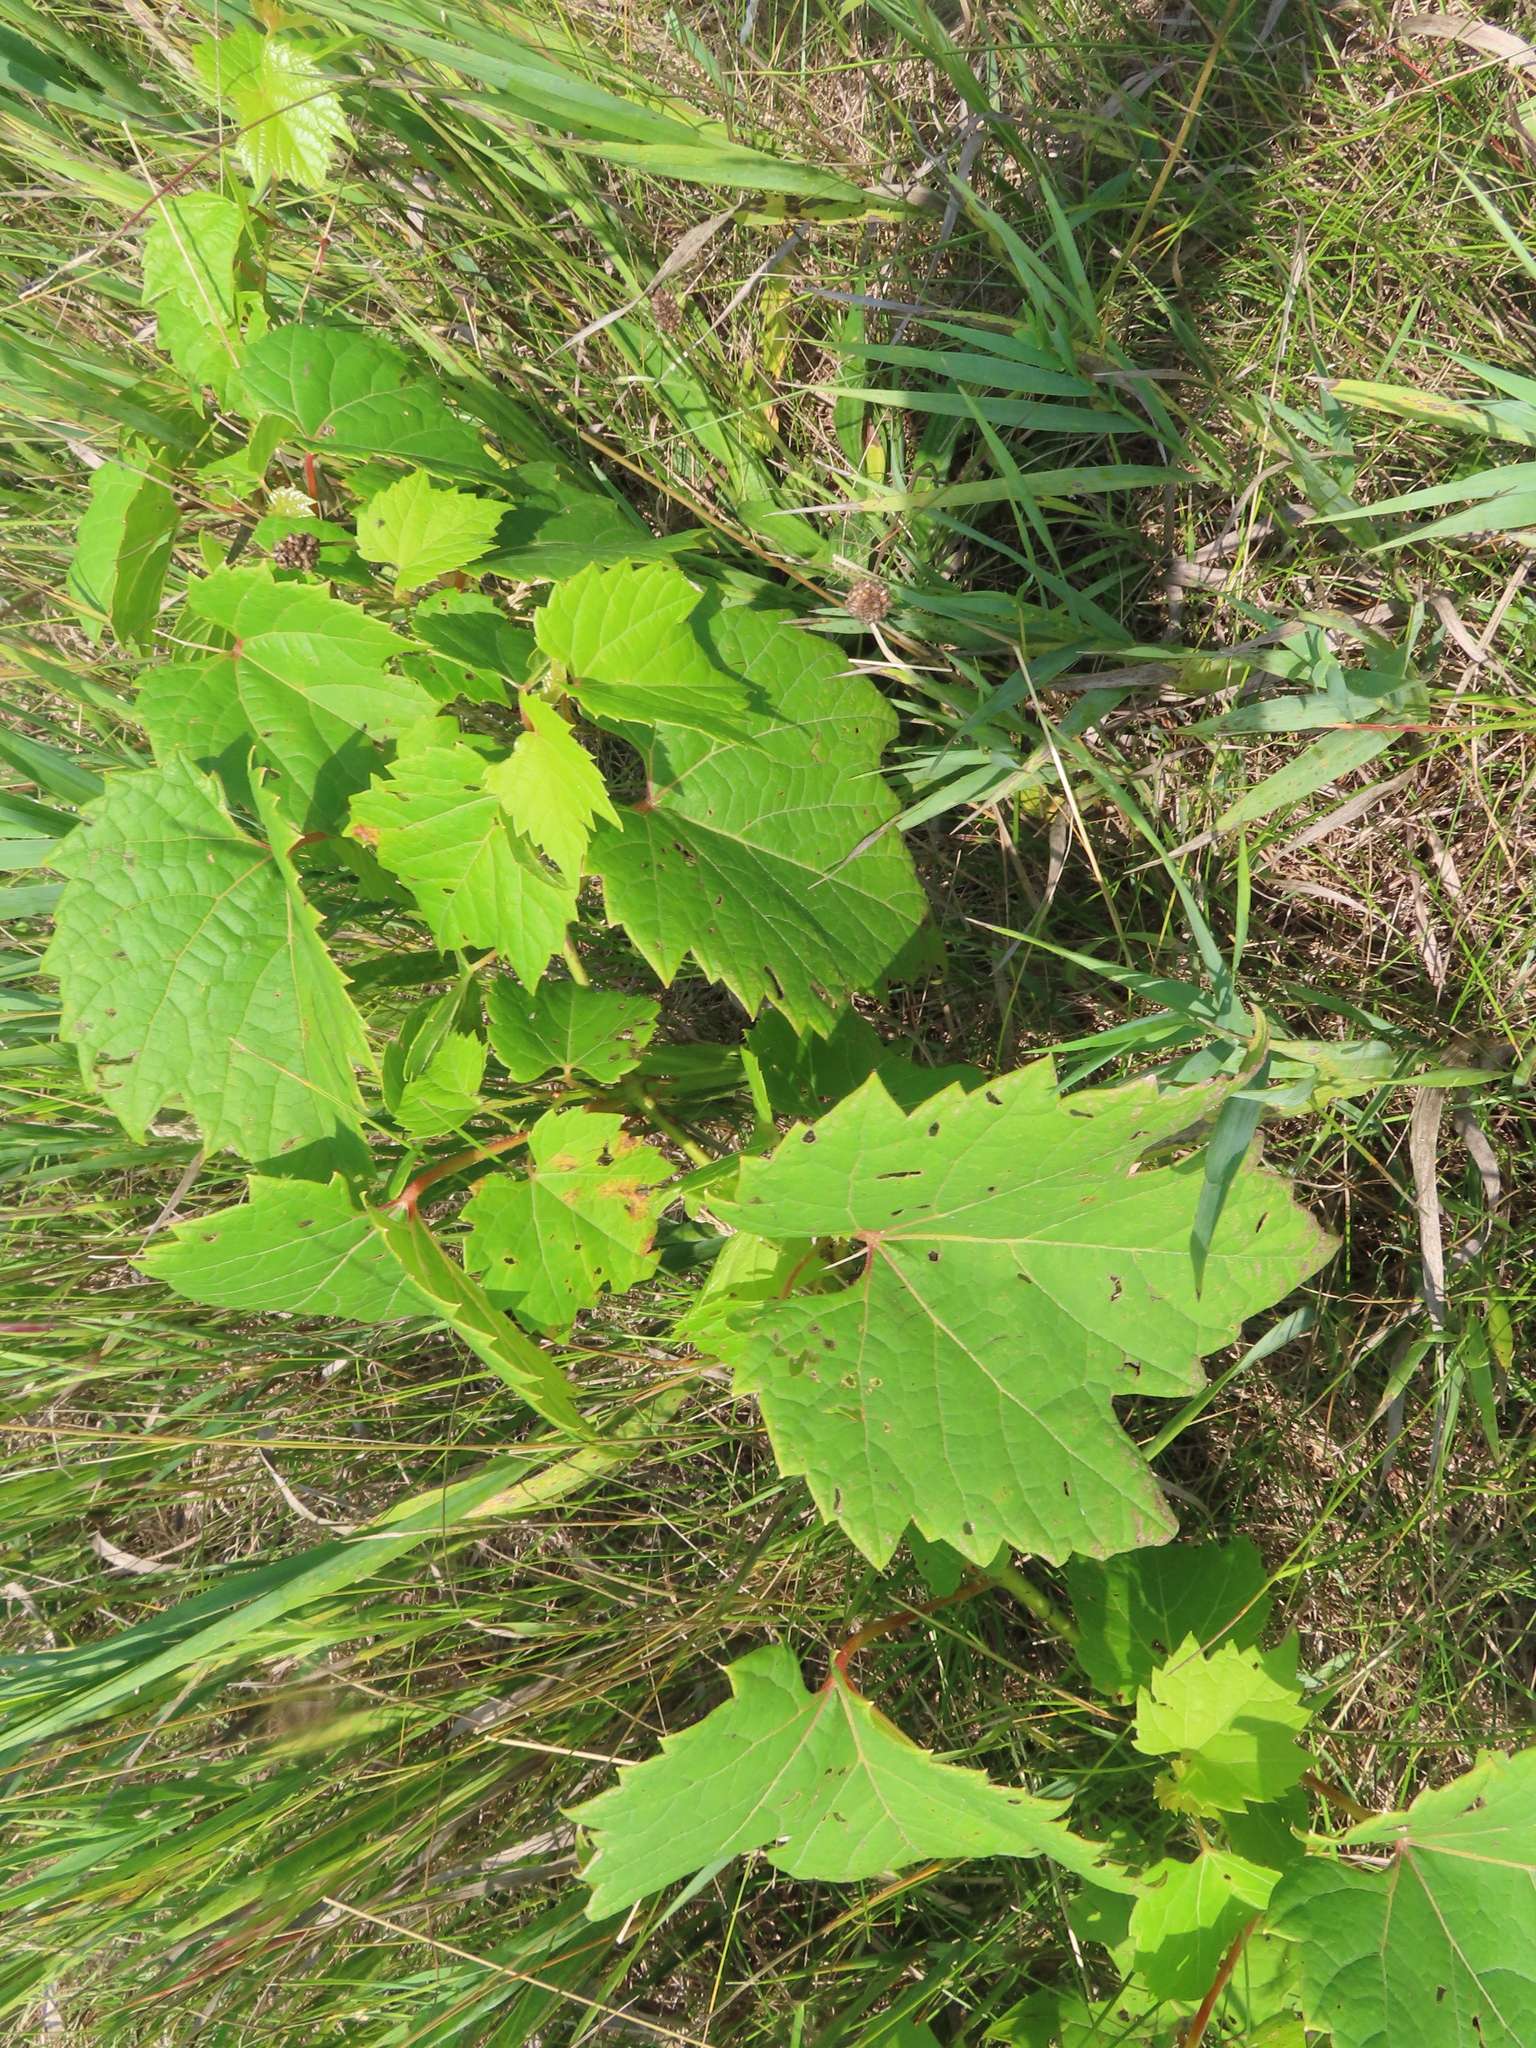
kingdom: Plantae
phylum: Tracheophyta
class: Magnoliopsida
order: Vitales
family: Vitaceae
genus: Vitis
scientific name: Vitis riparia
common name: Frost grape
